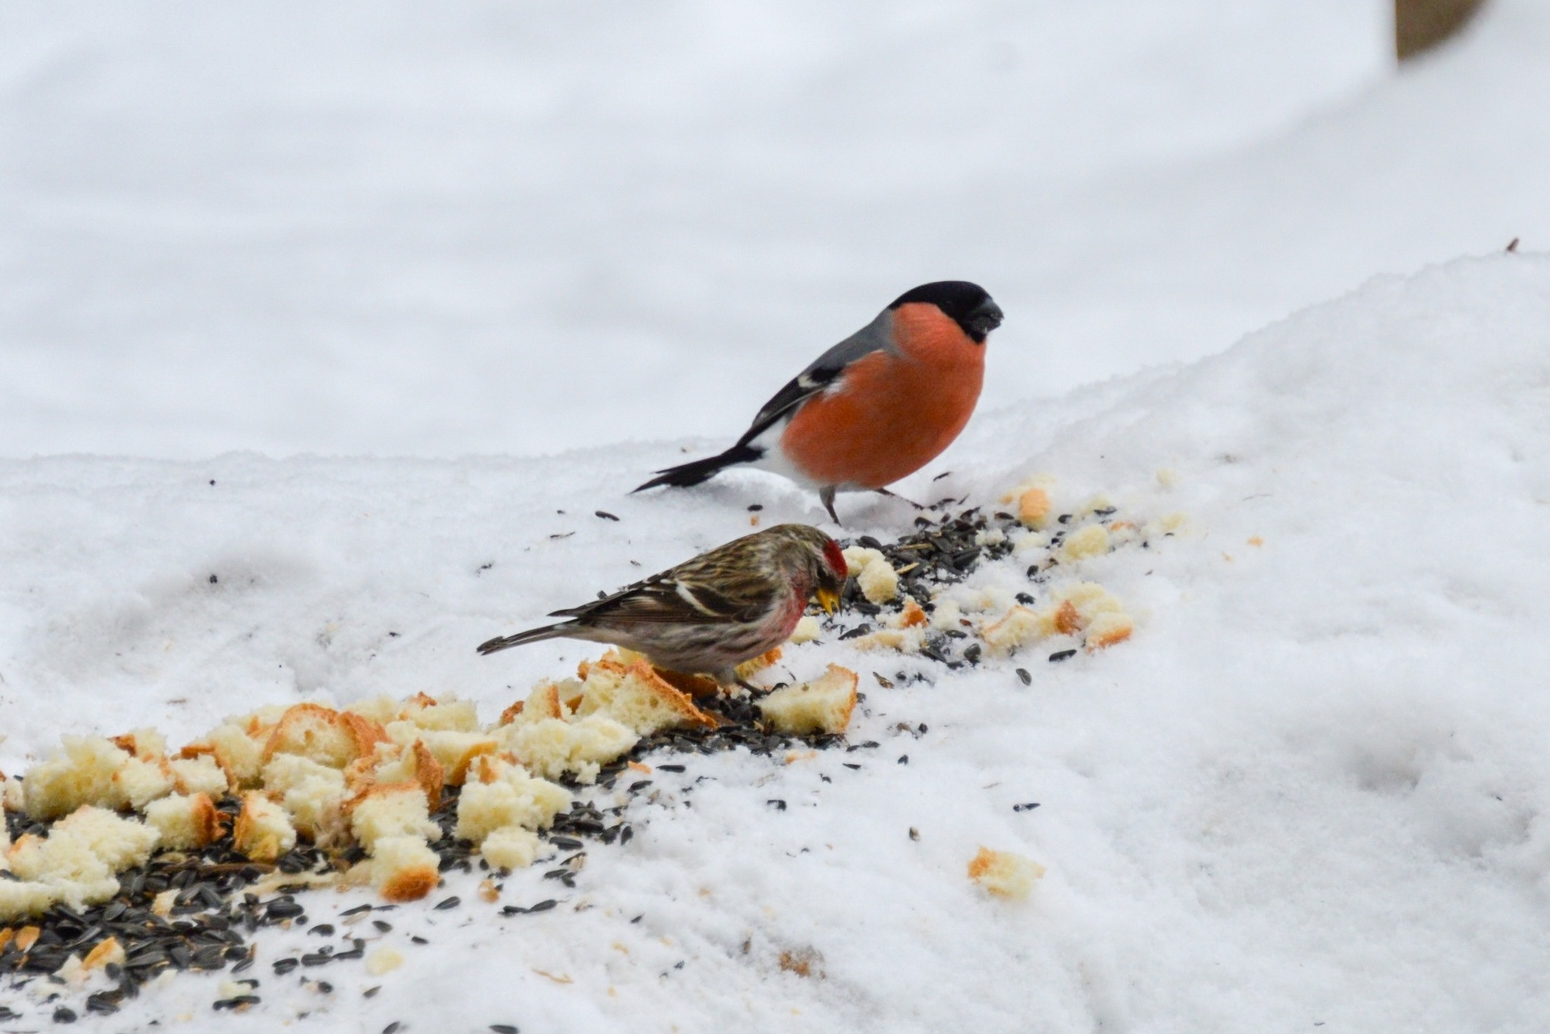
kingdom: Animalia
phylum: Chordata
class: Aves
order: Passeriformes
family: Fringillidae
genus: Pyrrhula
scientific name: Pyrrhula pyrrhula
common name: Eurasian bullfinch
